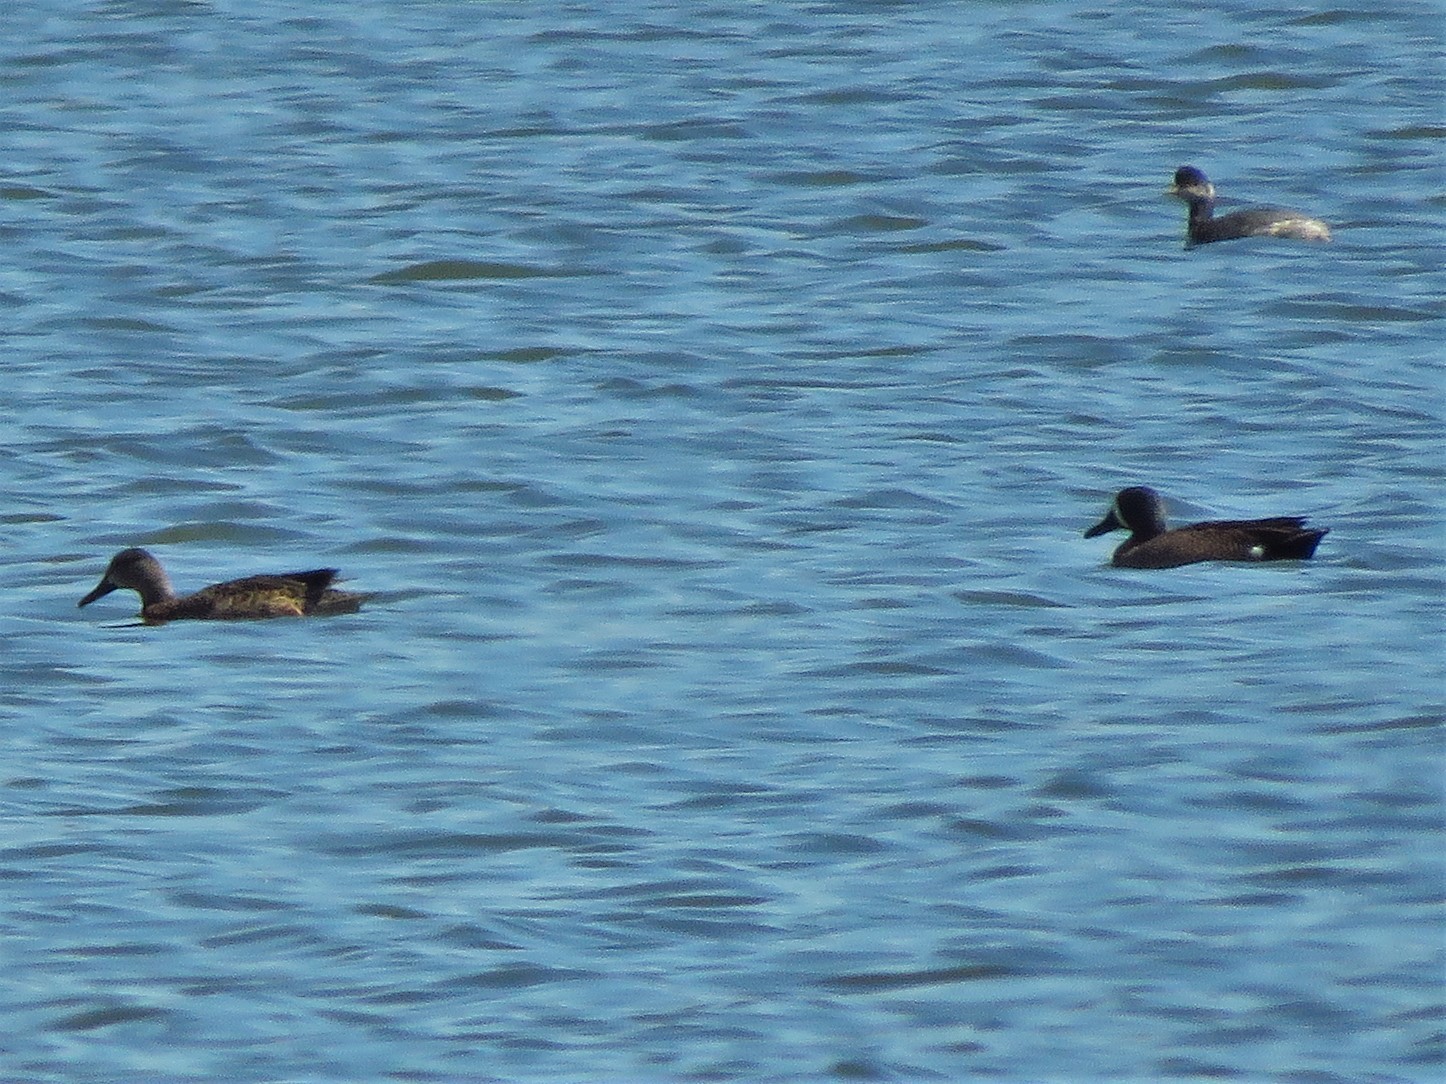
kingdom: Animalia
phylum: Chordata
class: Aves
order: Anseriformes
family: Anatidae
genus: Spatula
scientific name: Spatula discors
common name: Blue-winged teal
